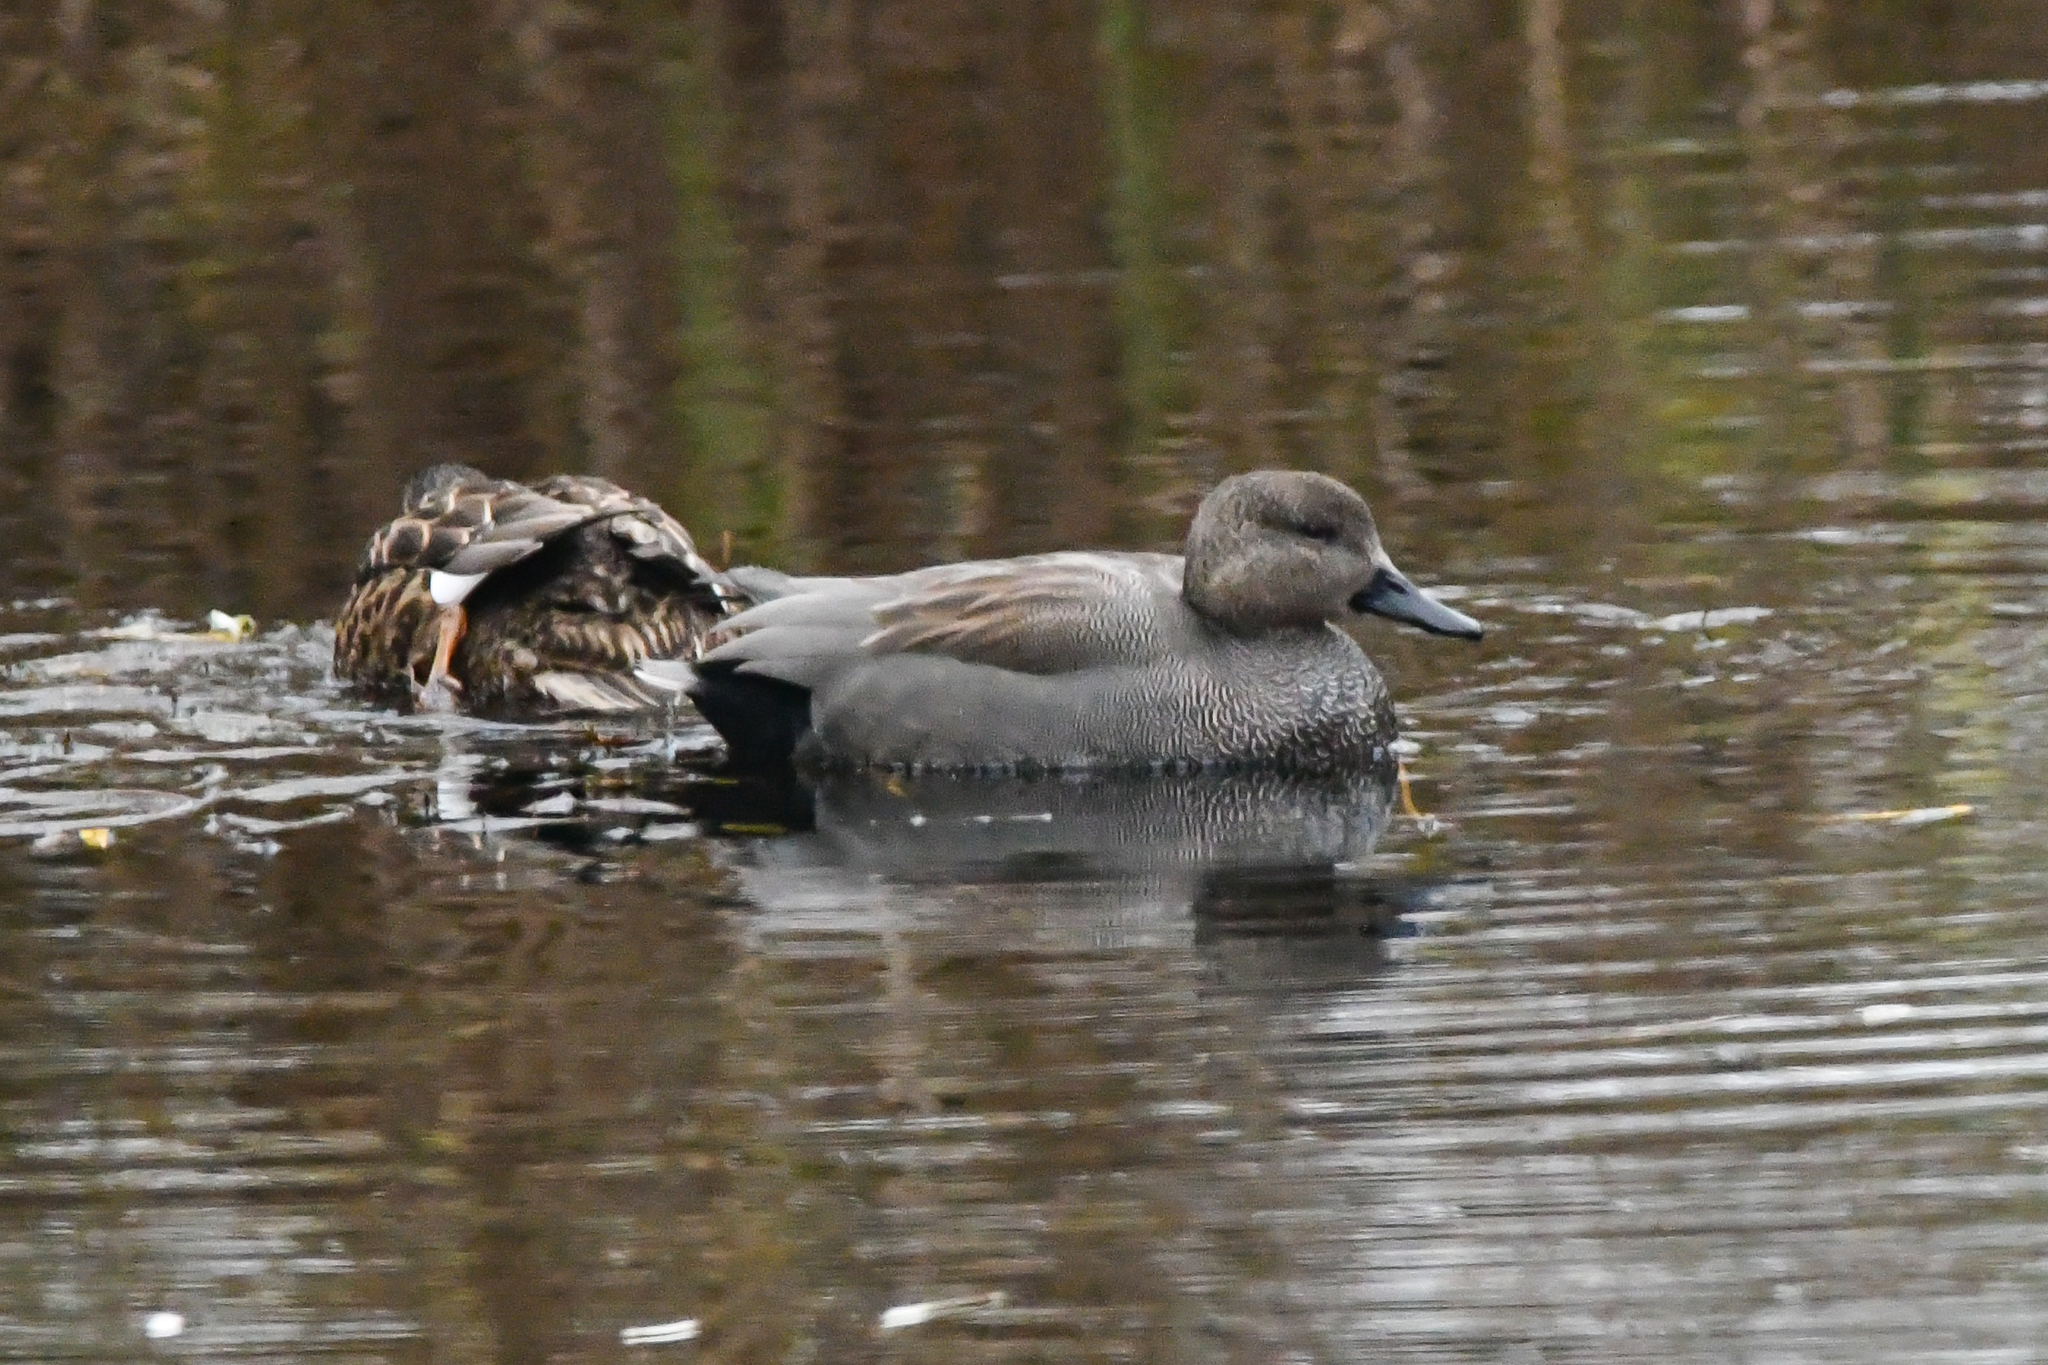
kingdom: Animalia
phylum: Chordata
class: Aves
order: Anseriformes
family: Anatidae
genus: Mareca
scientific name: Mareca strepera
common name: Gadwall
